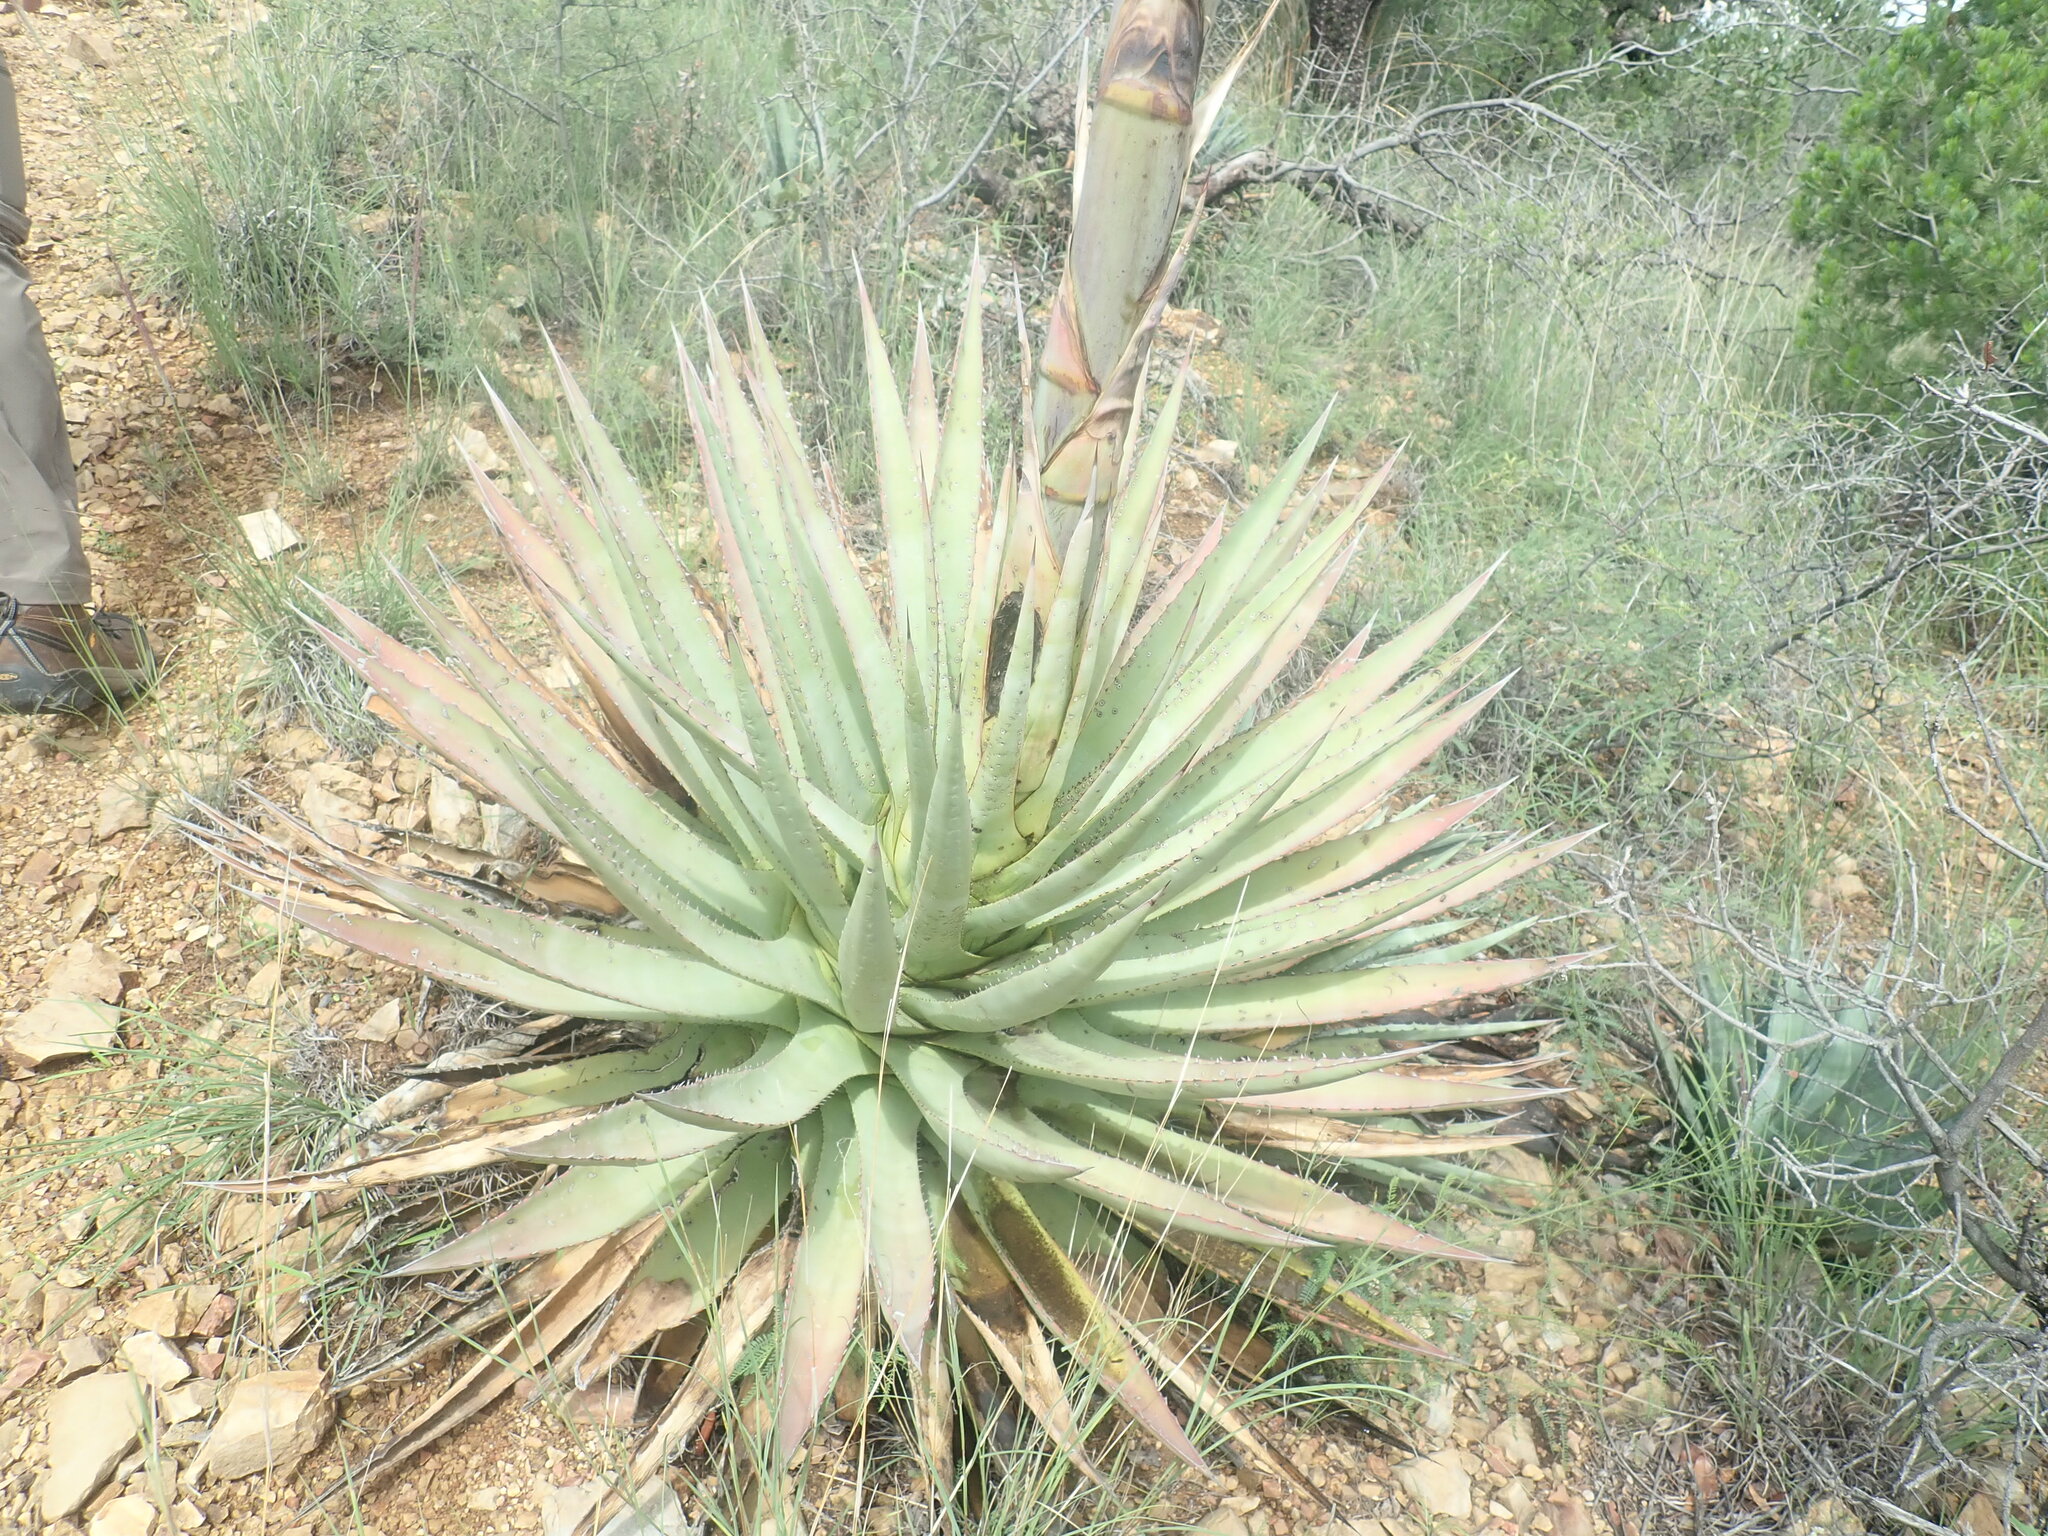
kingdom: Plantae
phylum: Tracheophyta
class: Liliopsida
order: Asparagales
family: Asparagaceae
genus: Agave
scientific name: Agave palmeri
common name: Palmer agave
